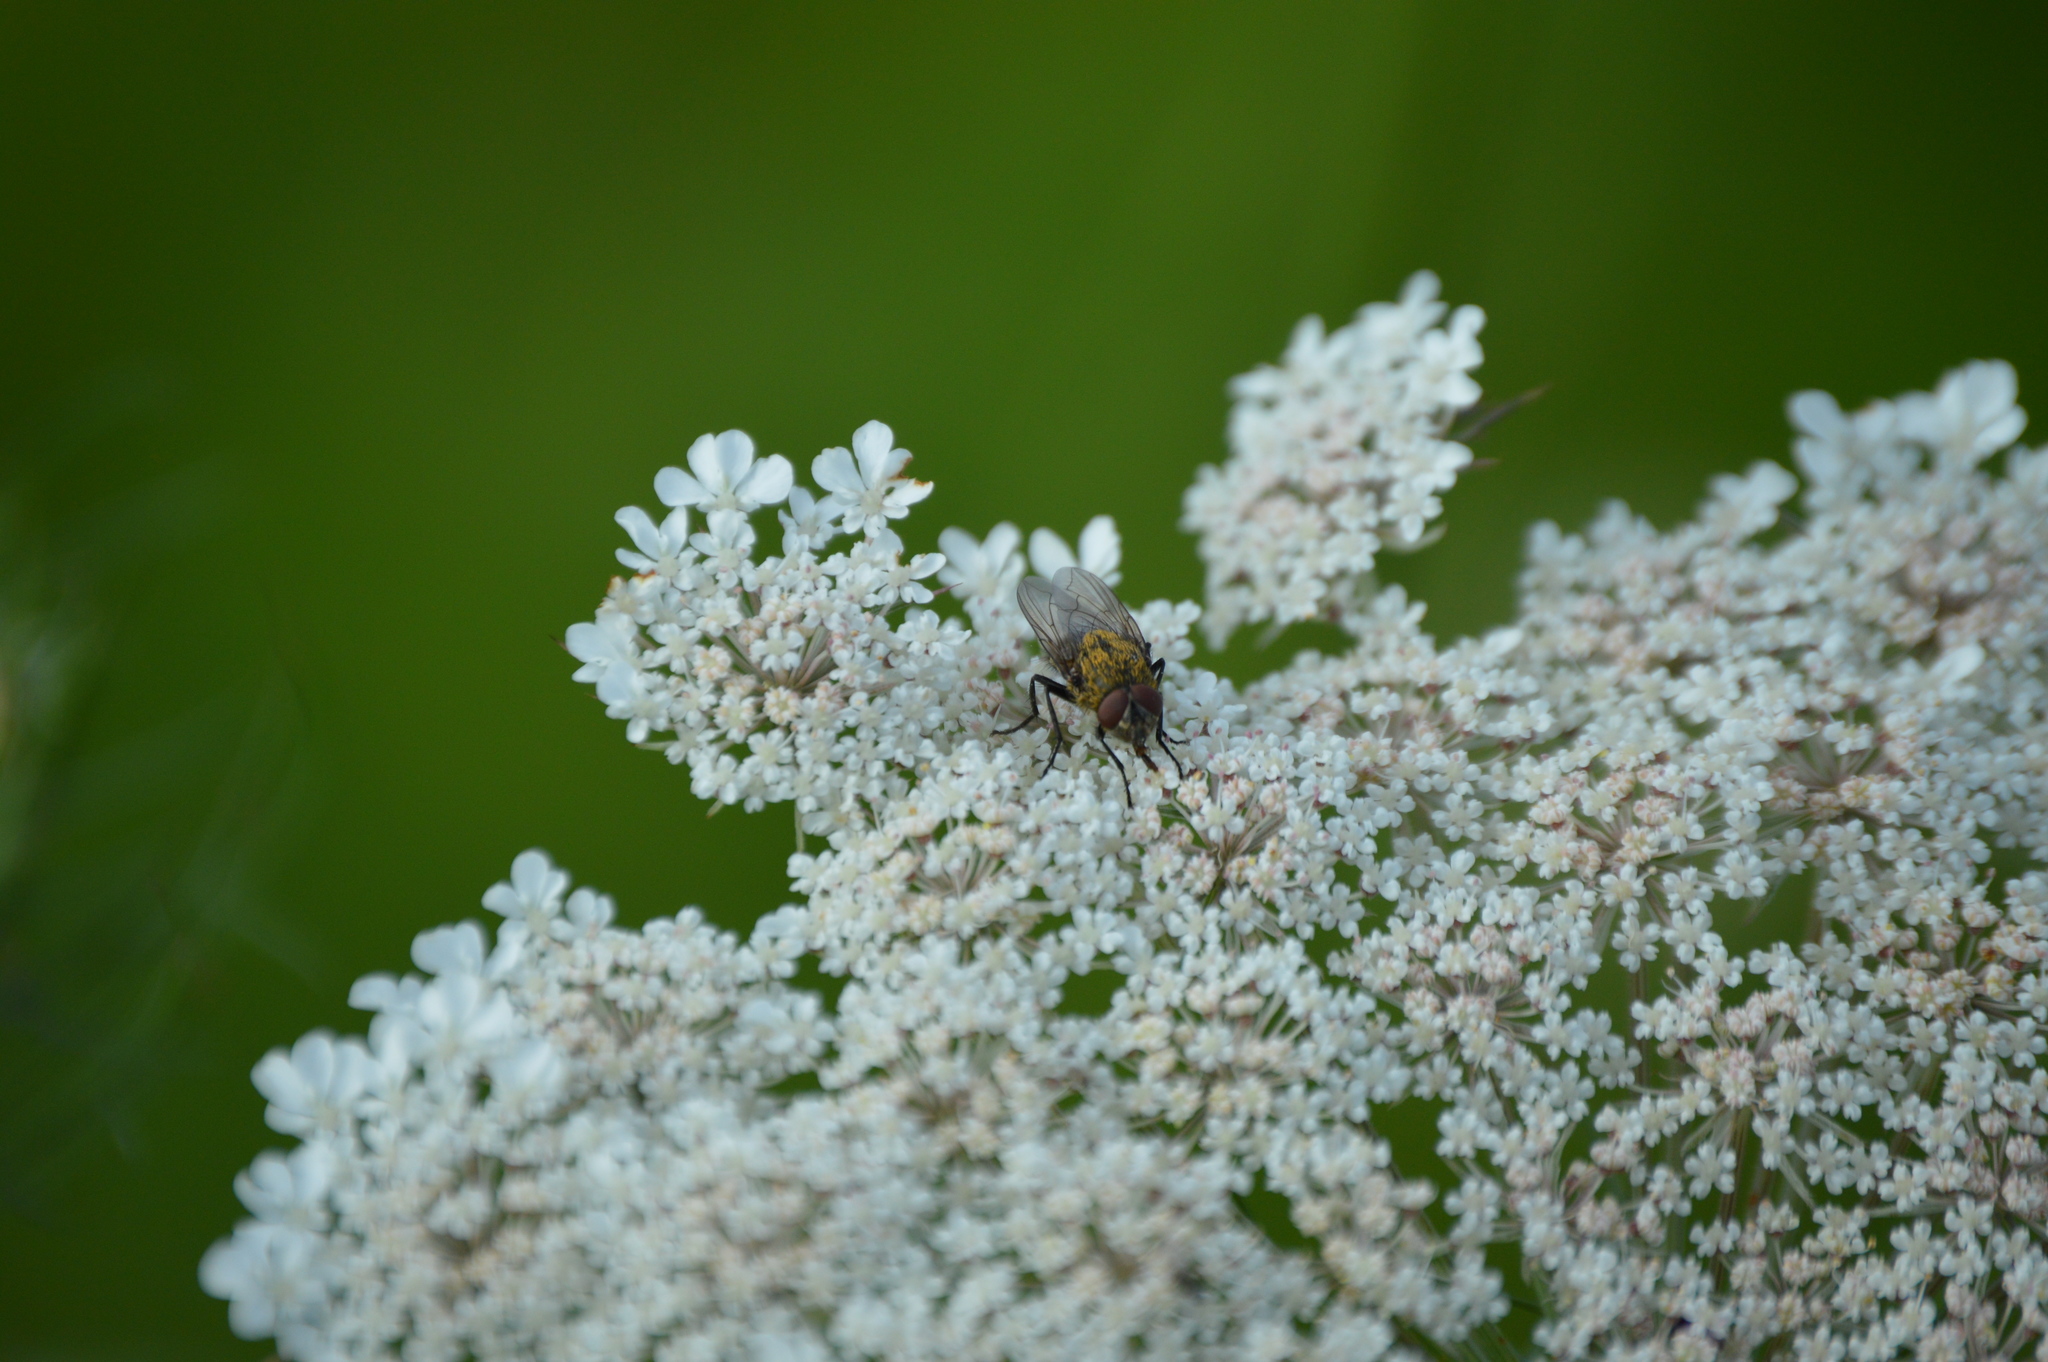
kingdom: Animalia
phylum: Arthropoda
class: Insecta
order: Diptera
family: Polleniidae
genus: Pollenia
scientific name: Pollenia
